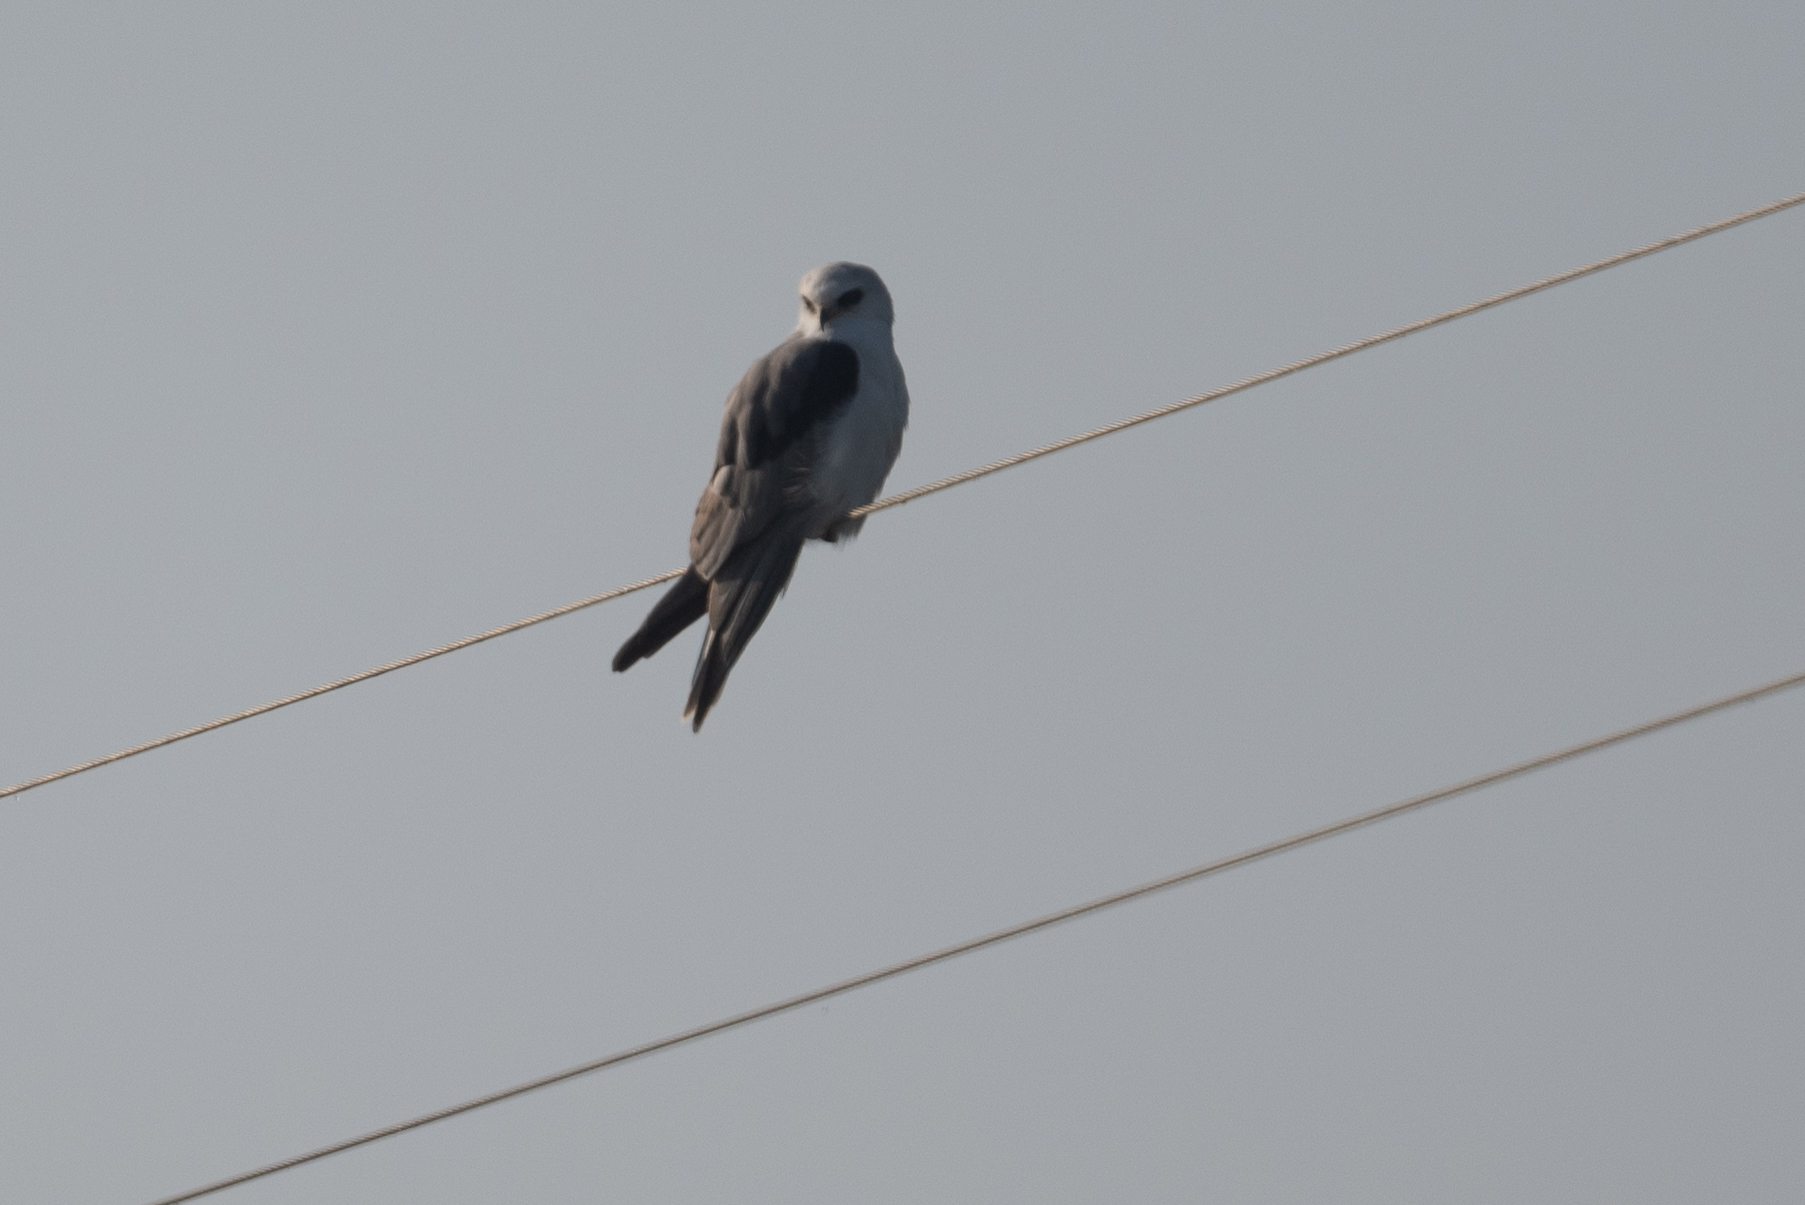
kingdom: Animalia
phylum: Chordata
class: Aves
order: Accipitriformes
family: Accipitridae
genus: Elanus
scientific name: Elanus leucurus
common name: White-tailed kite
